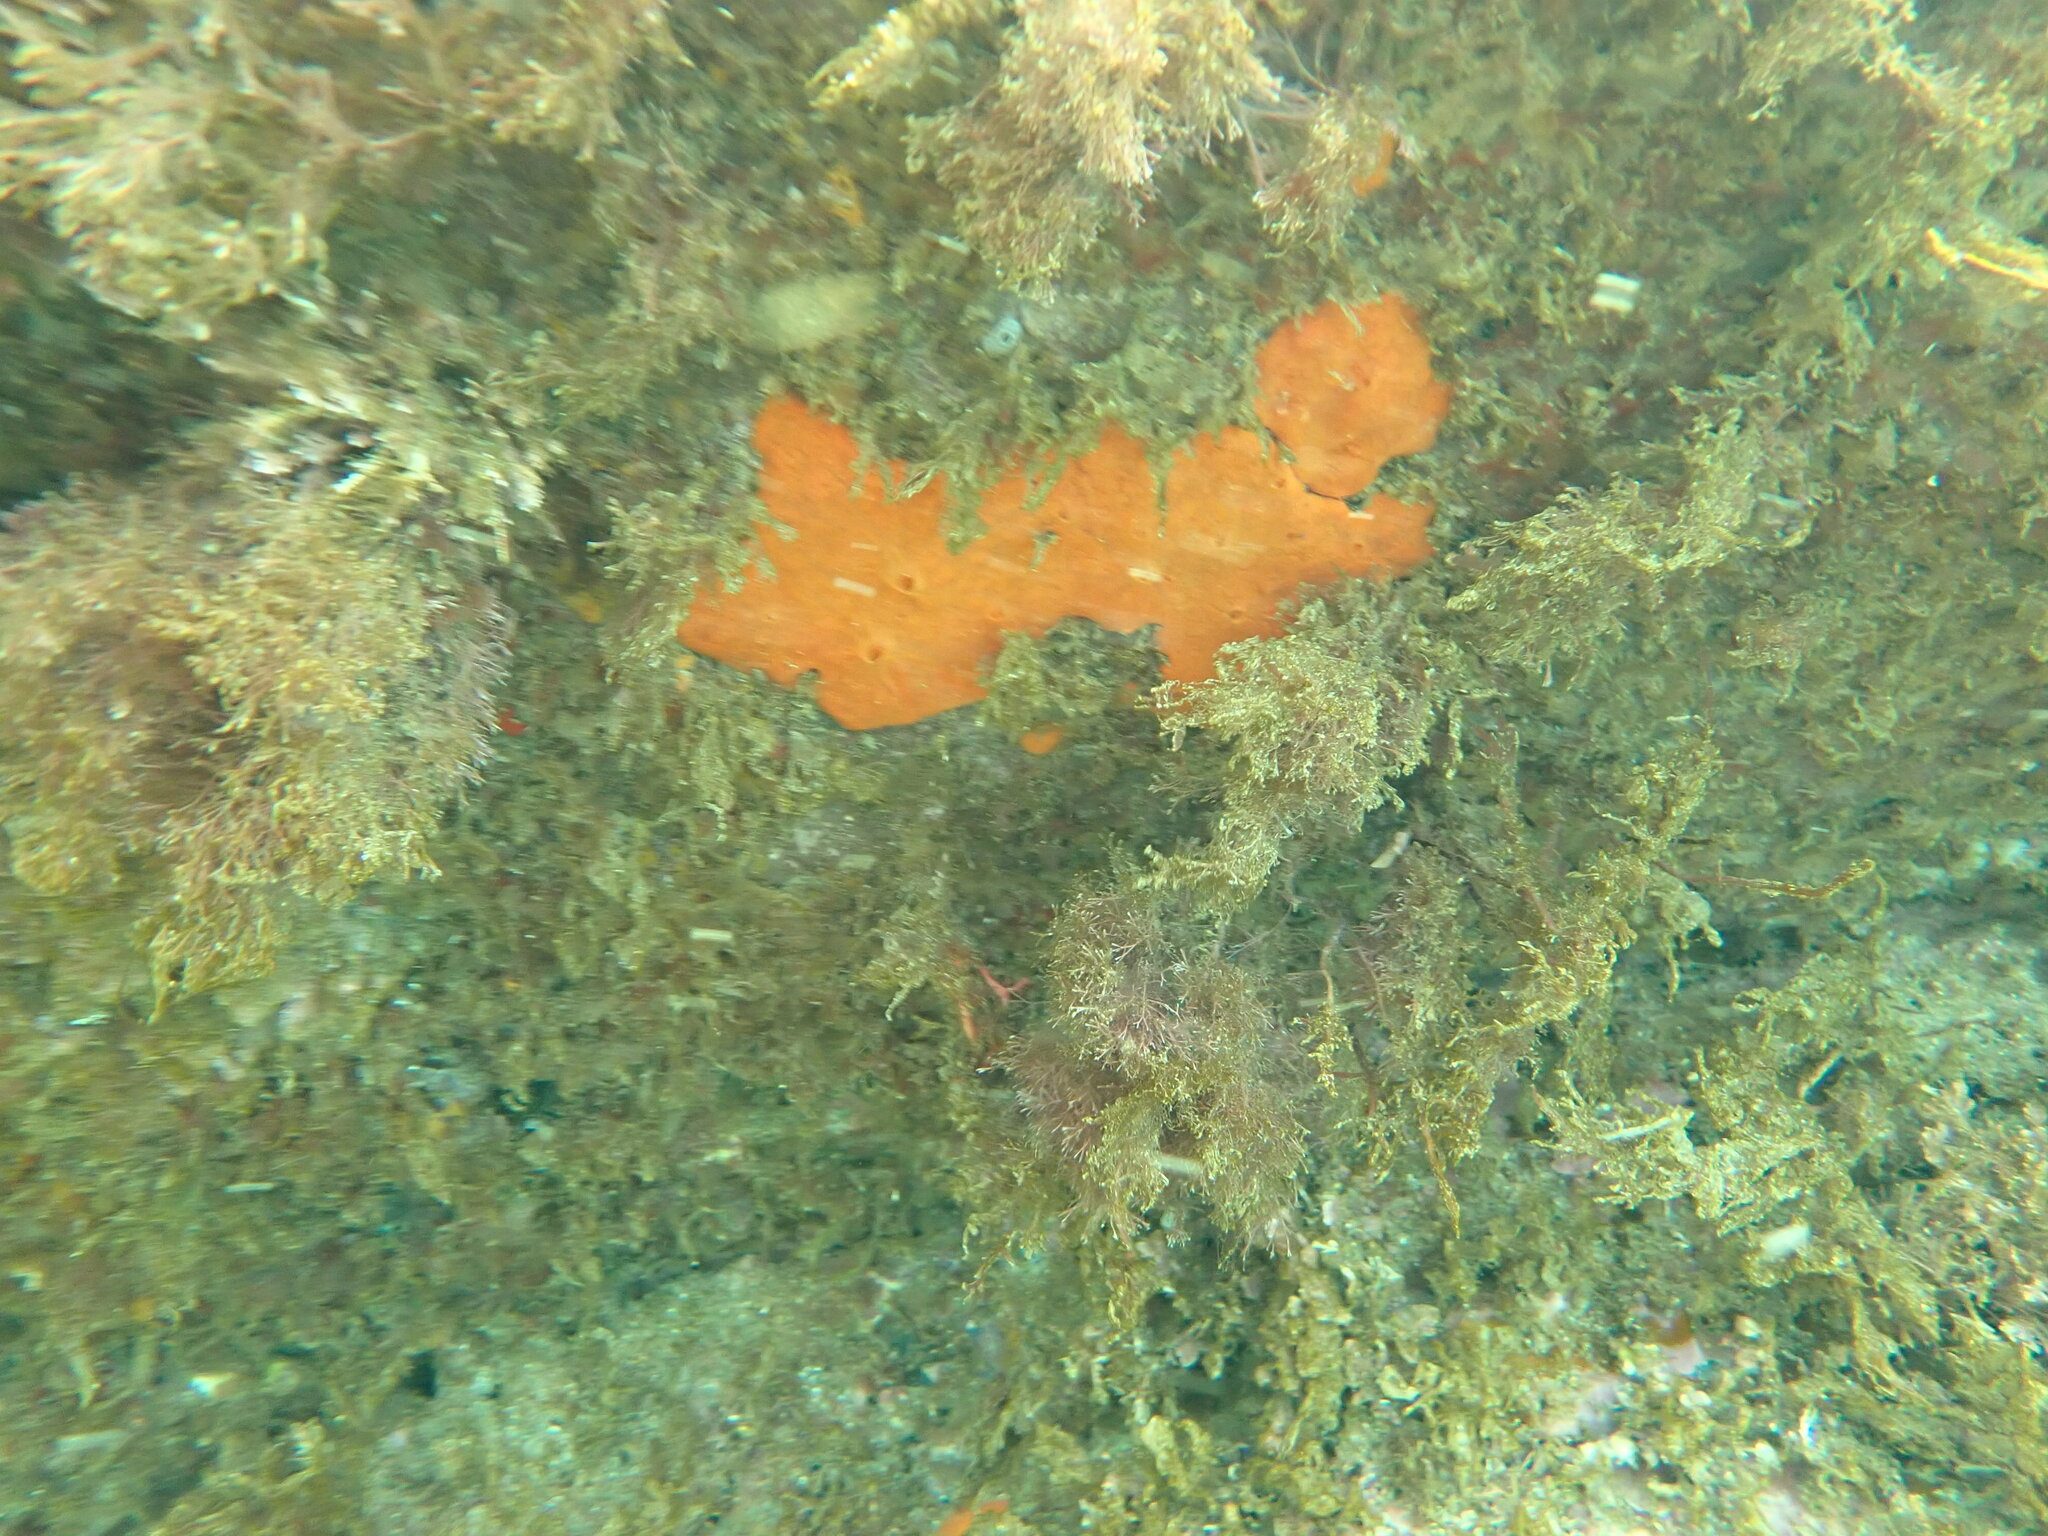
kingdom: Animalia
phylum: Porifera
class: Demospongiae
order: Poecilosclerida
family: Crambeidae
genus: Crambe
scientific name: Crambe crambe
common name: Orange-red encrusting sponge
